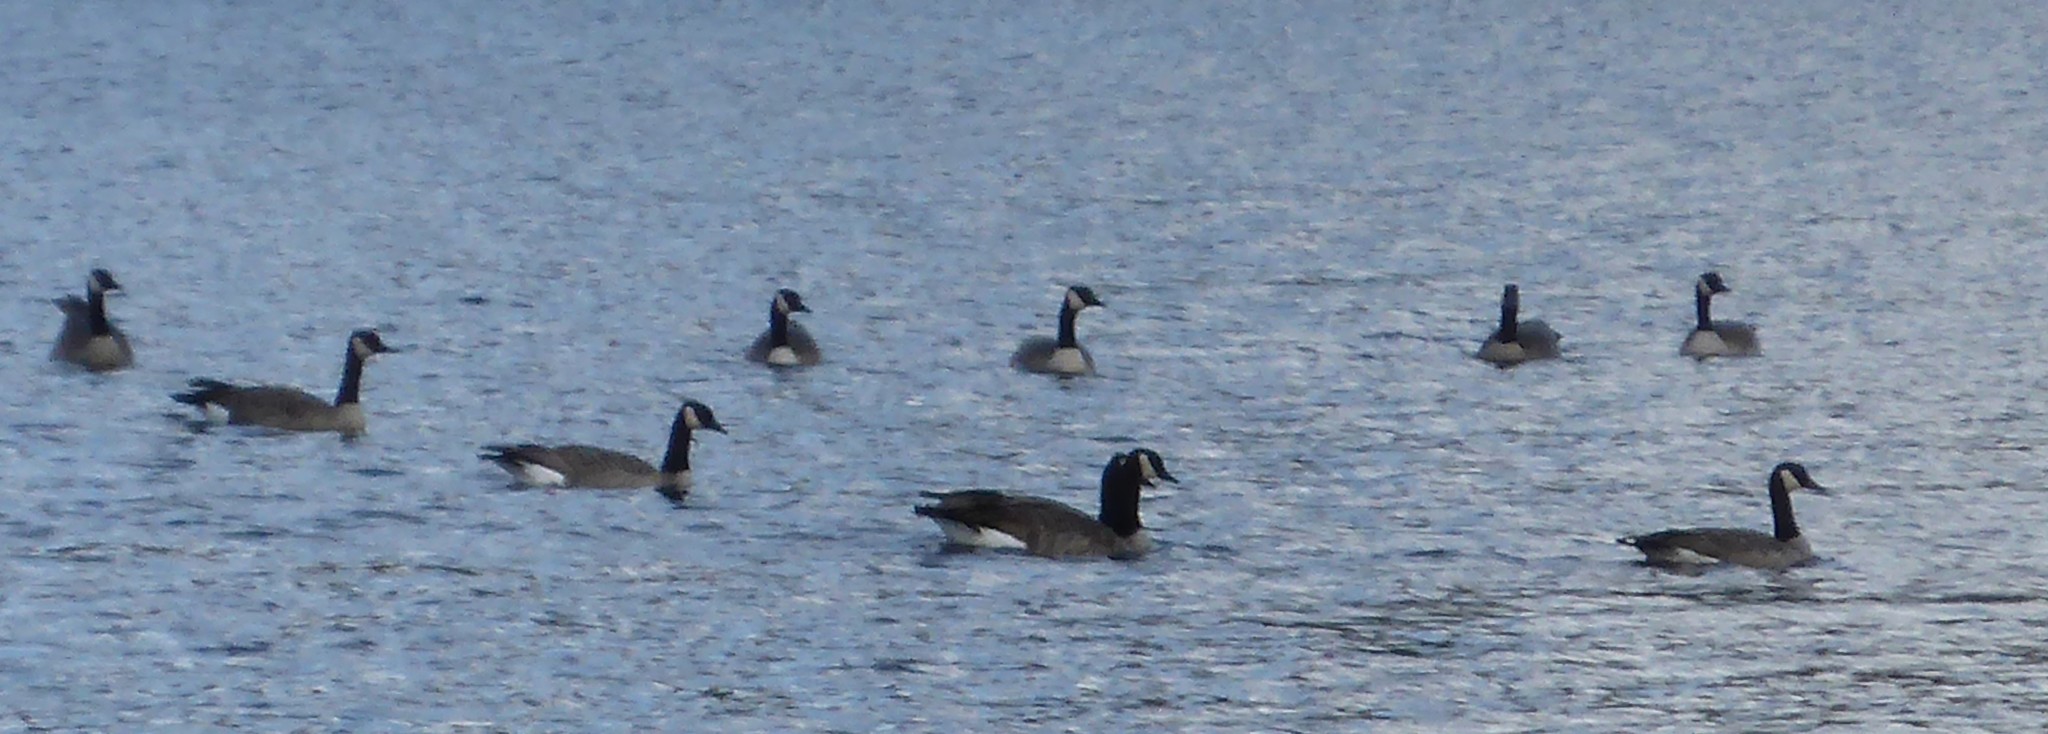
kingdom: Animalia
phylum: Chordata
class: Aves
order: Anseriformes
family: Anatidae
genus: Branta
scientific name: Branta canadensis
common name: Canada goose
